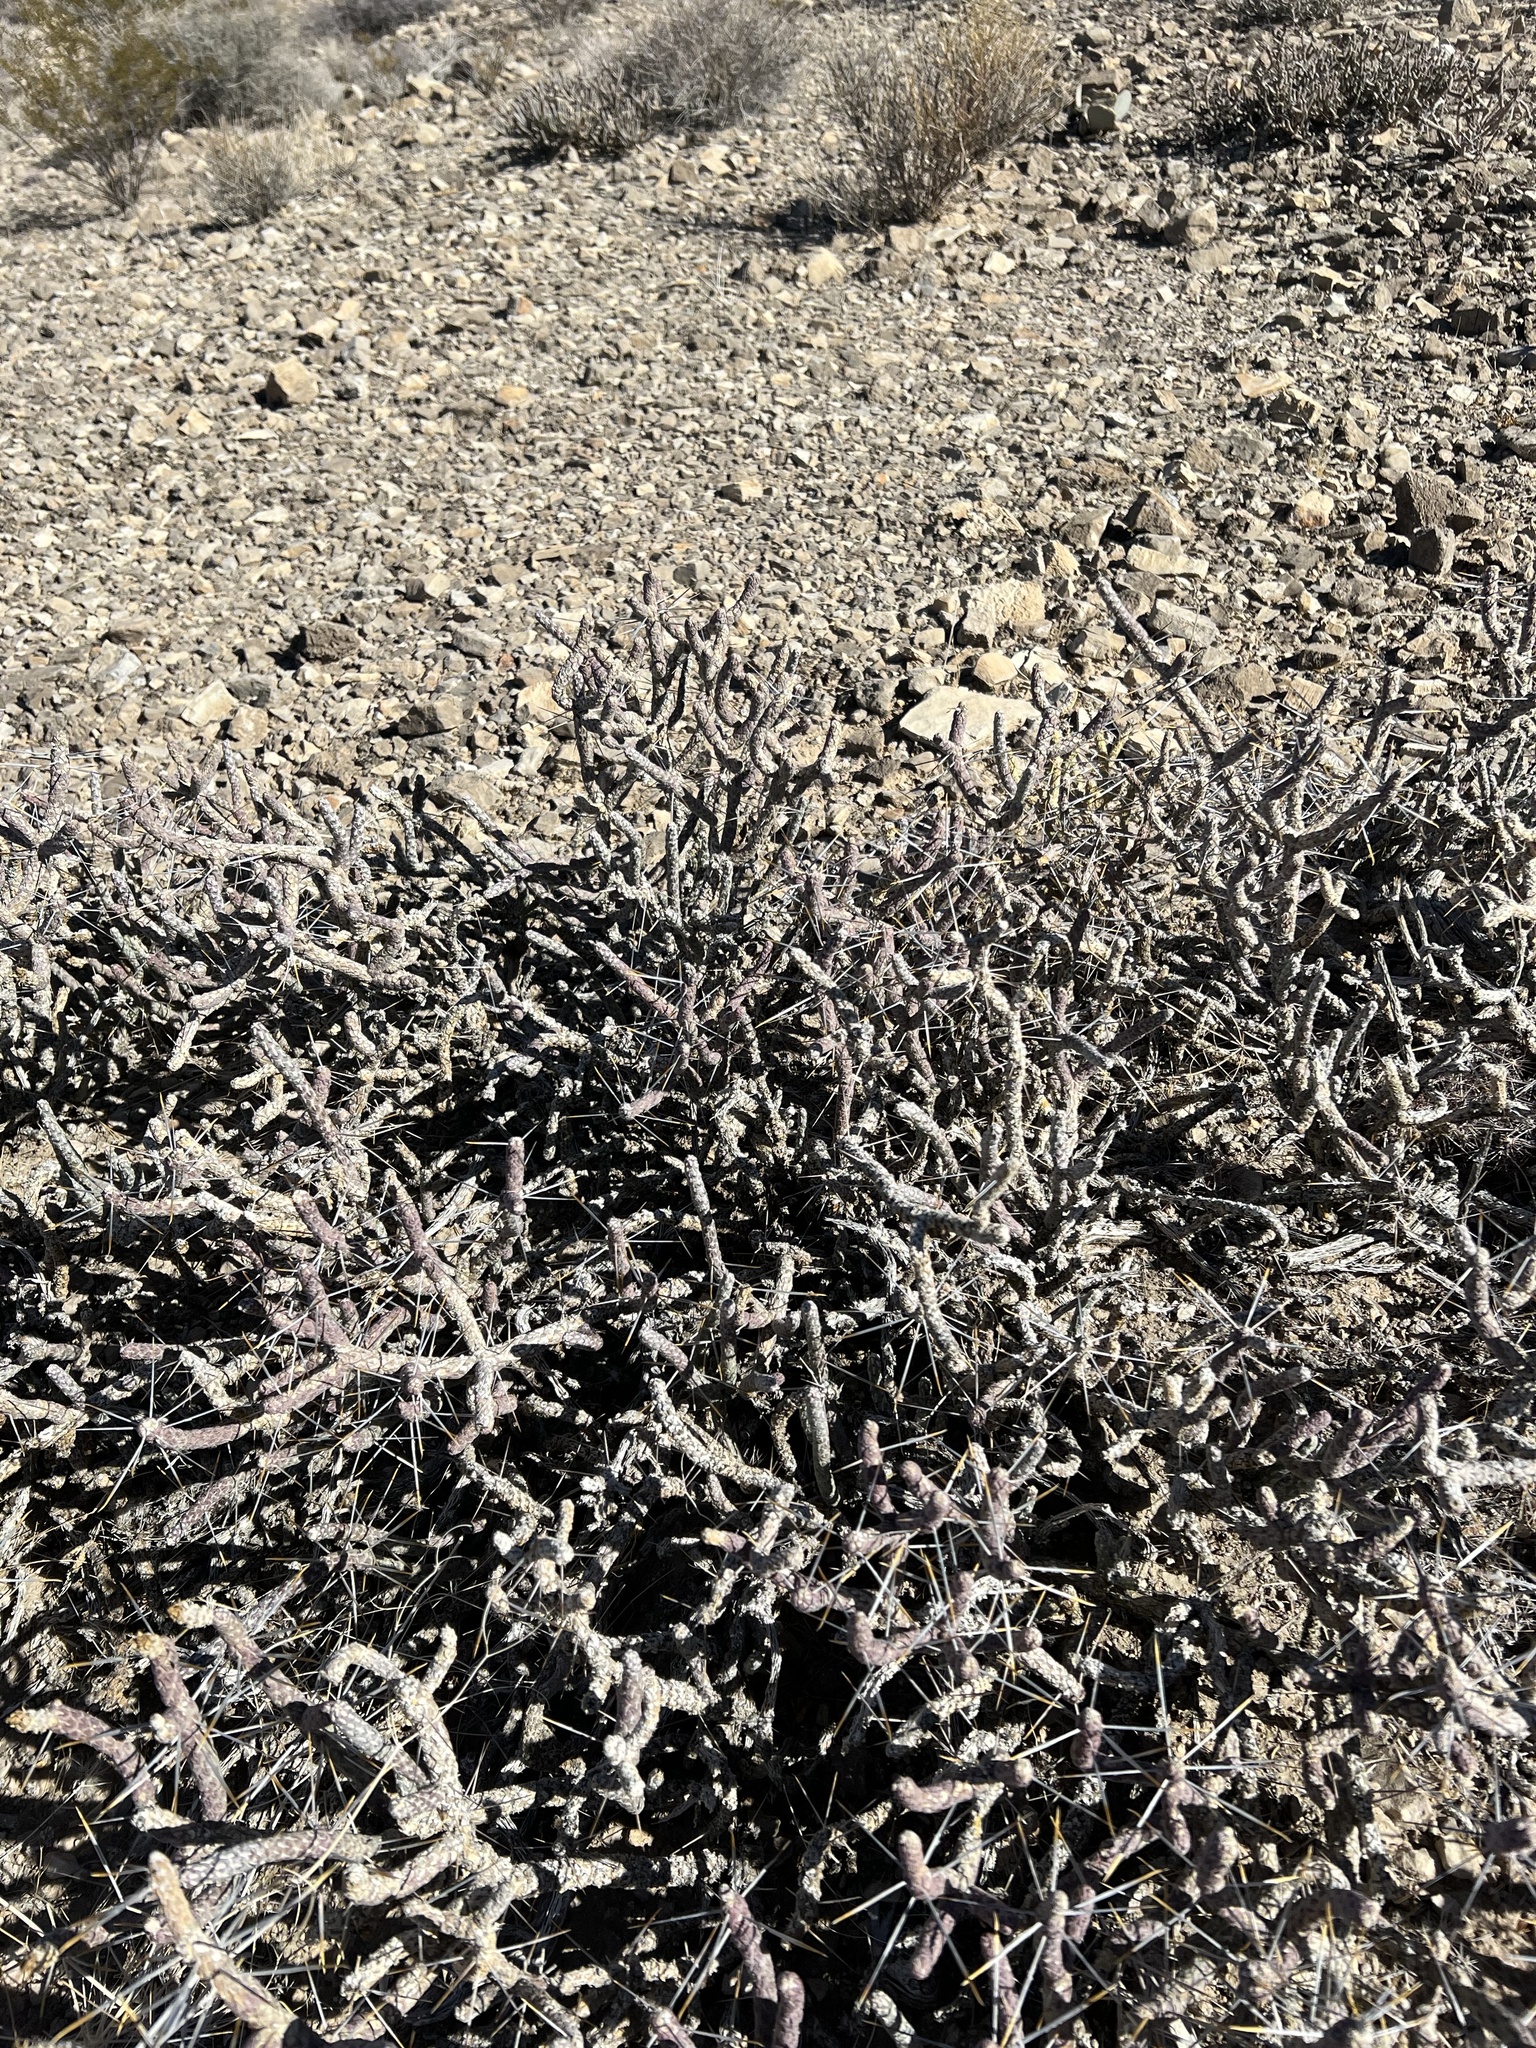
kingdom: Plantae
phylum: Tracheophyta
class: Magnoliopsida
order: Caryophyllales
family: Cactaceae
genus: Cylindropuntia
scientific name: Cylindropuntia ramosissima
